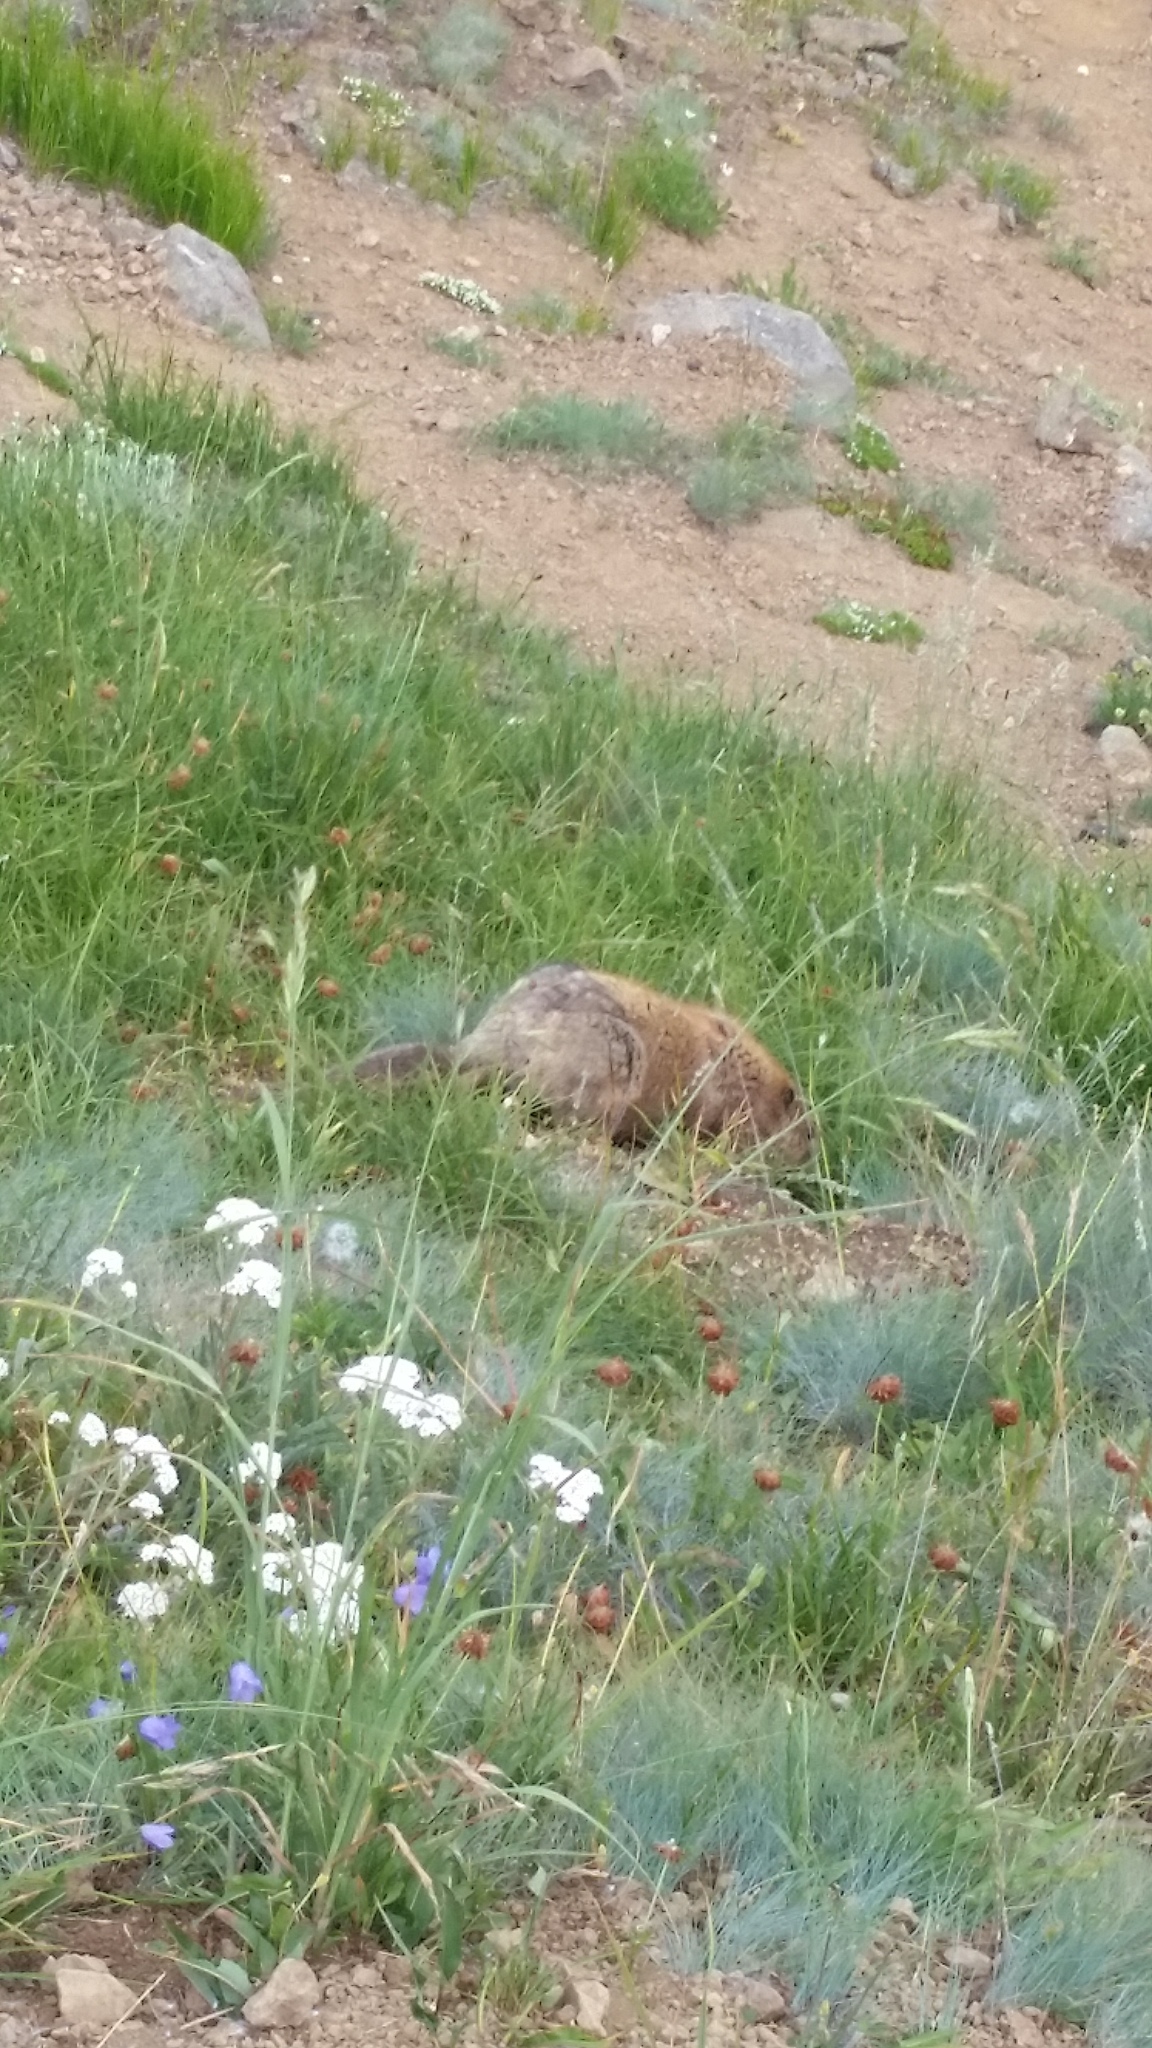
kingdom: Animalia
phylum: Chordata
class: Mammalia
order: Rodentia
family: Sciuridae
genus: Marmota
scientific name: Marmota olympus
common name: Olympic marmot
